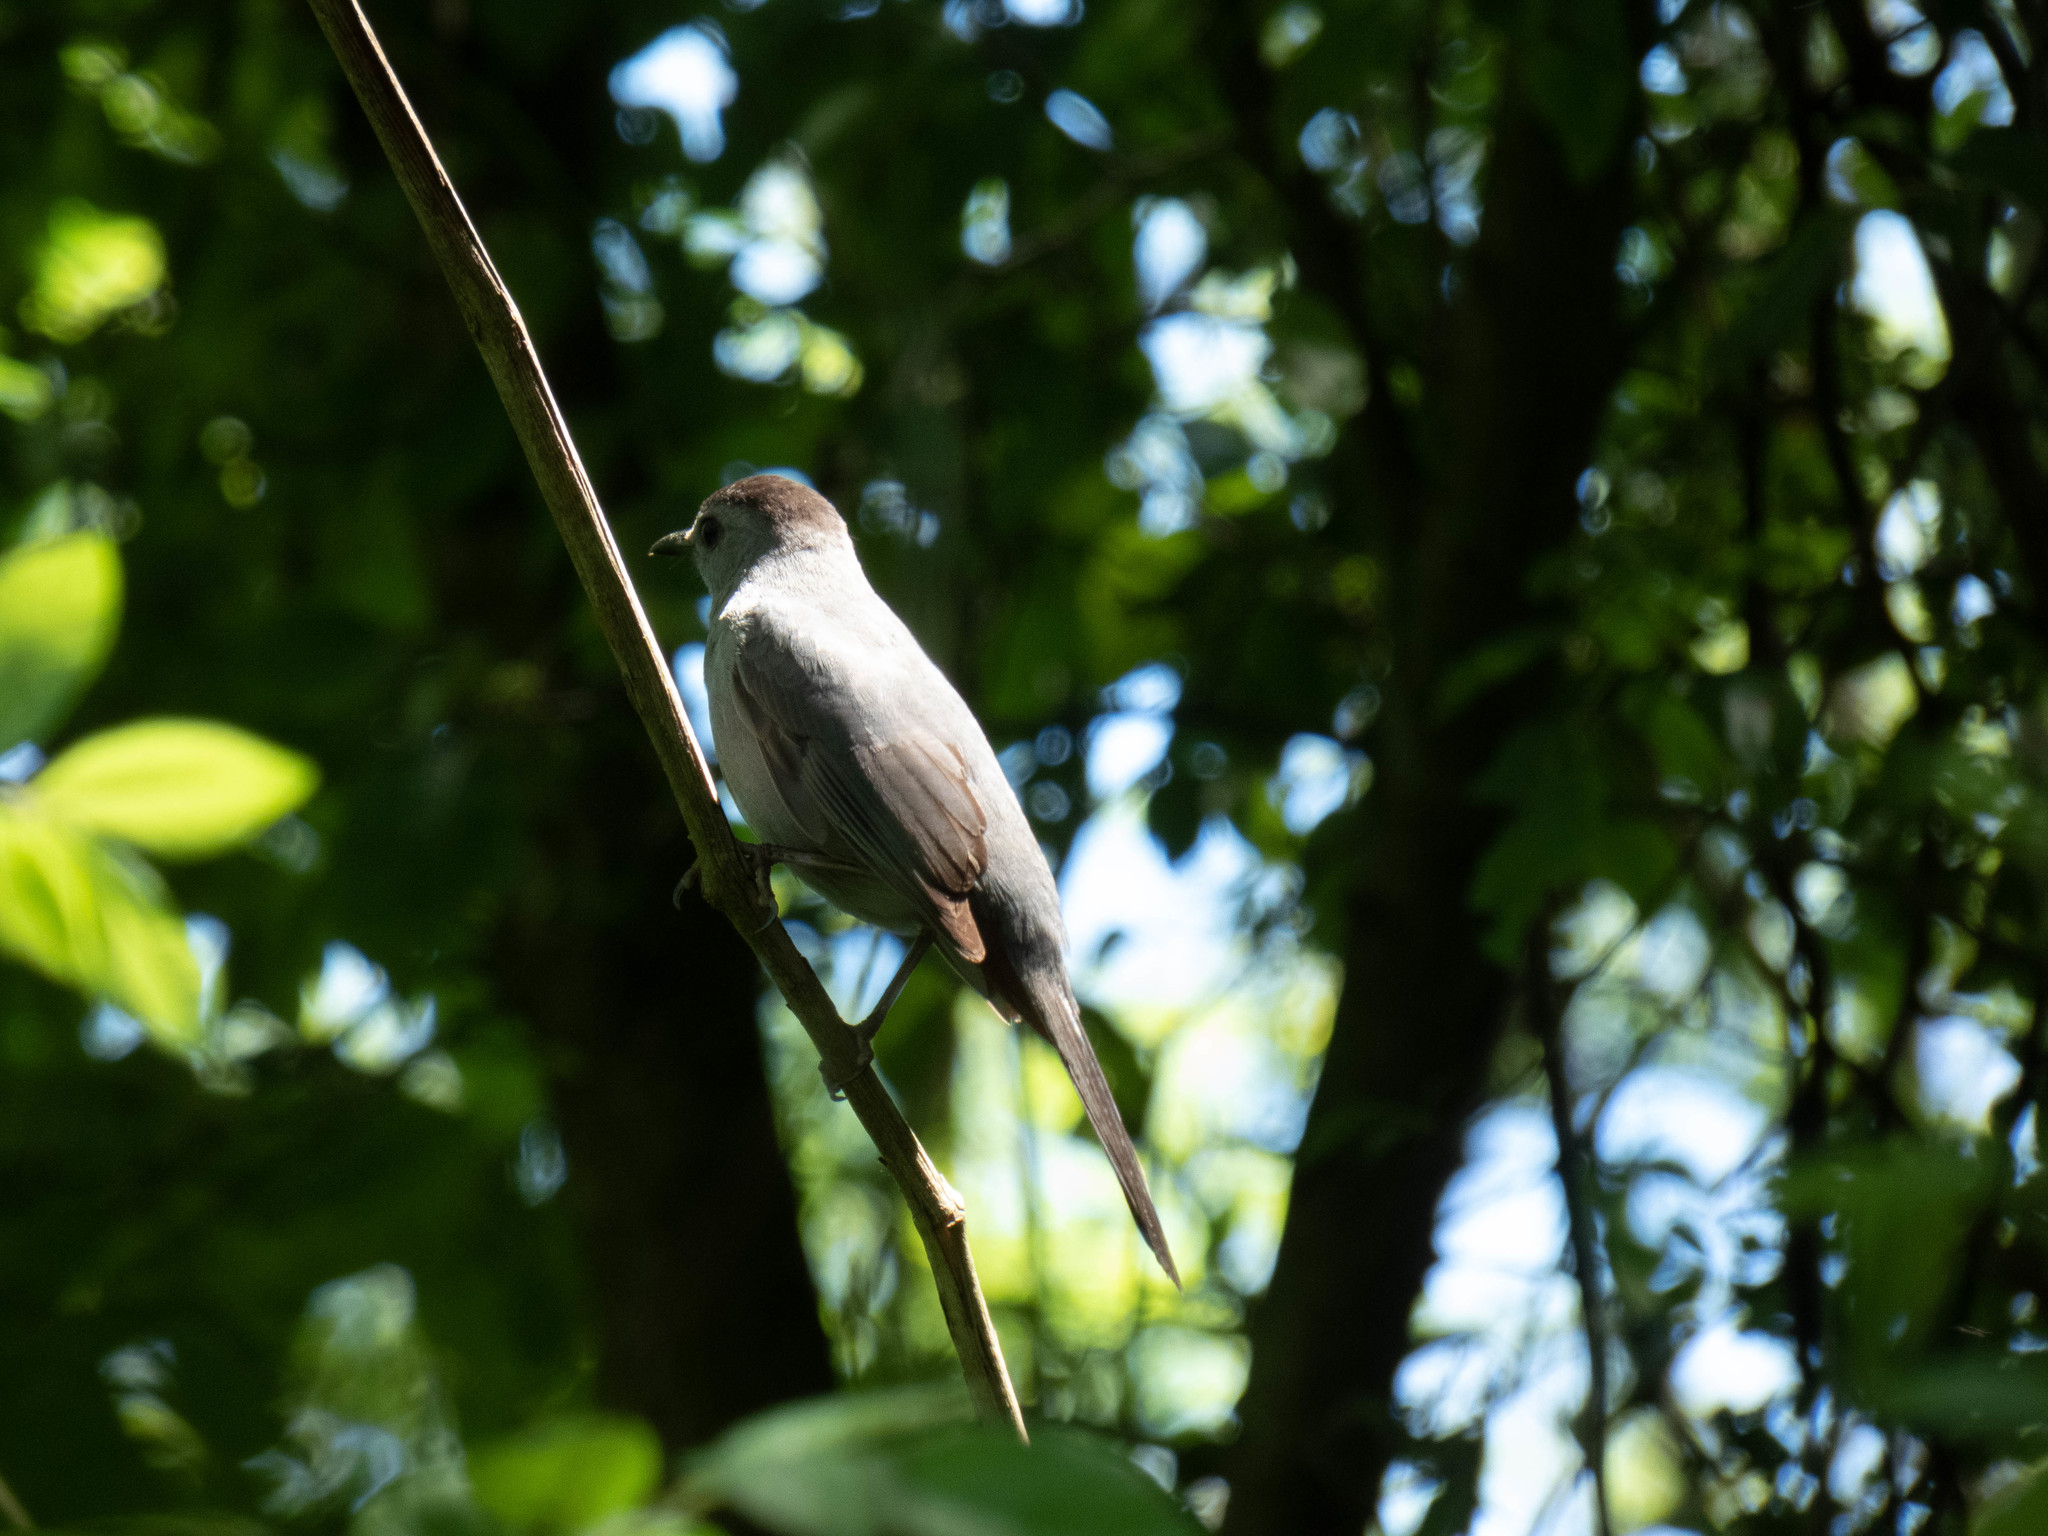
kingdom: Animalia
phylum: Chordata
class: Aves
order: Passeriformes
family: Mimidae
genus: Dumetella
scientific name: Dumetella carolinensis
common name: Gray catbird
